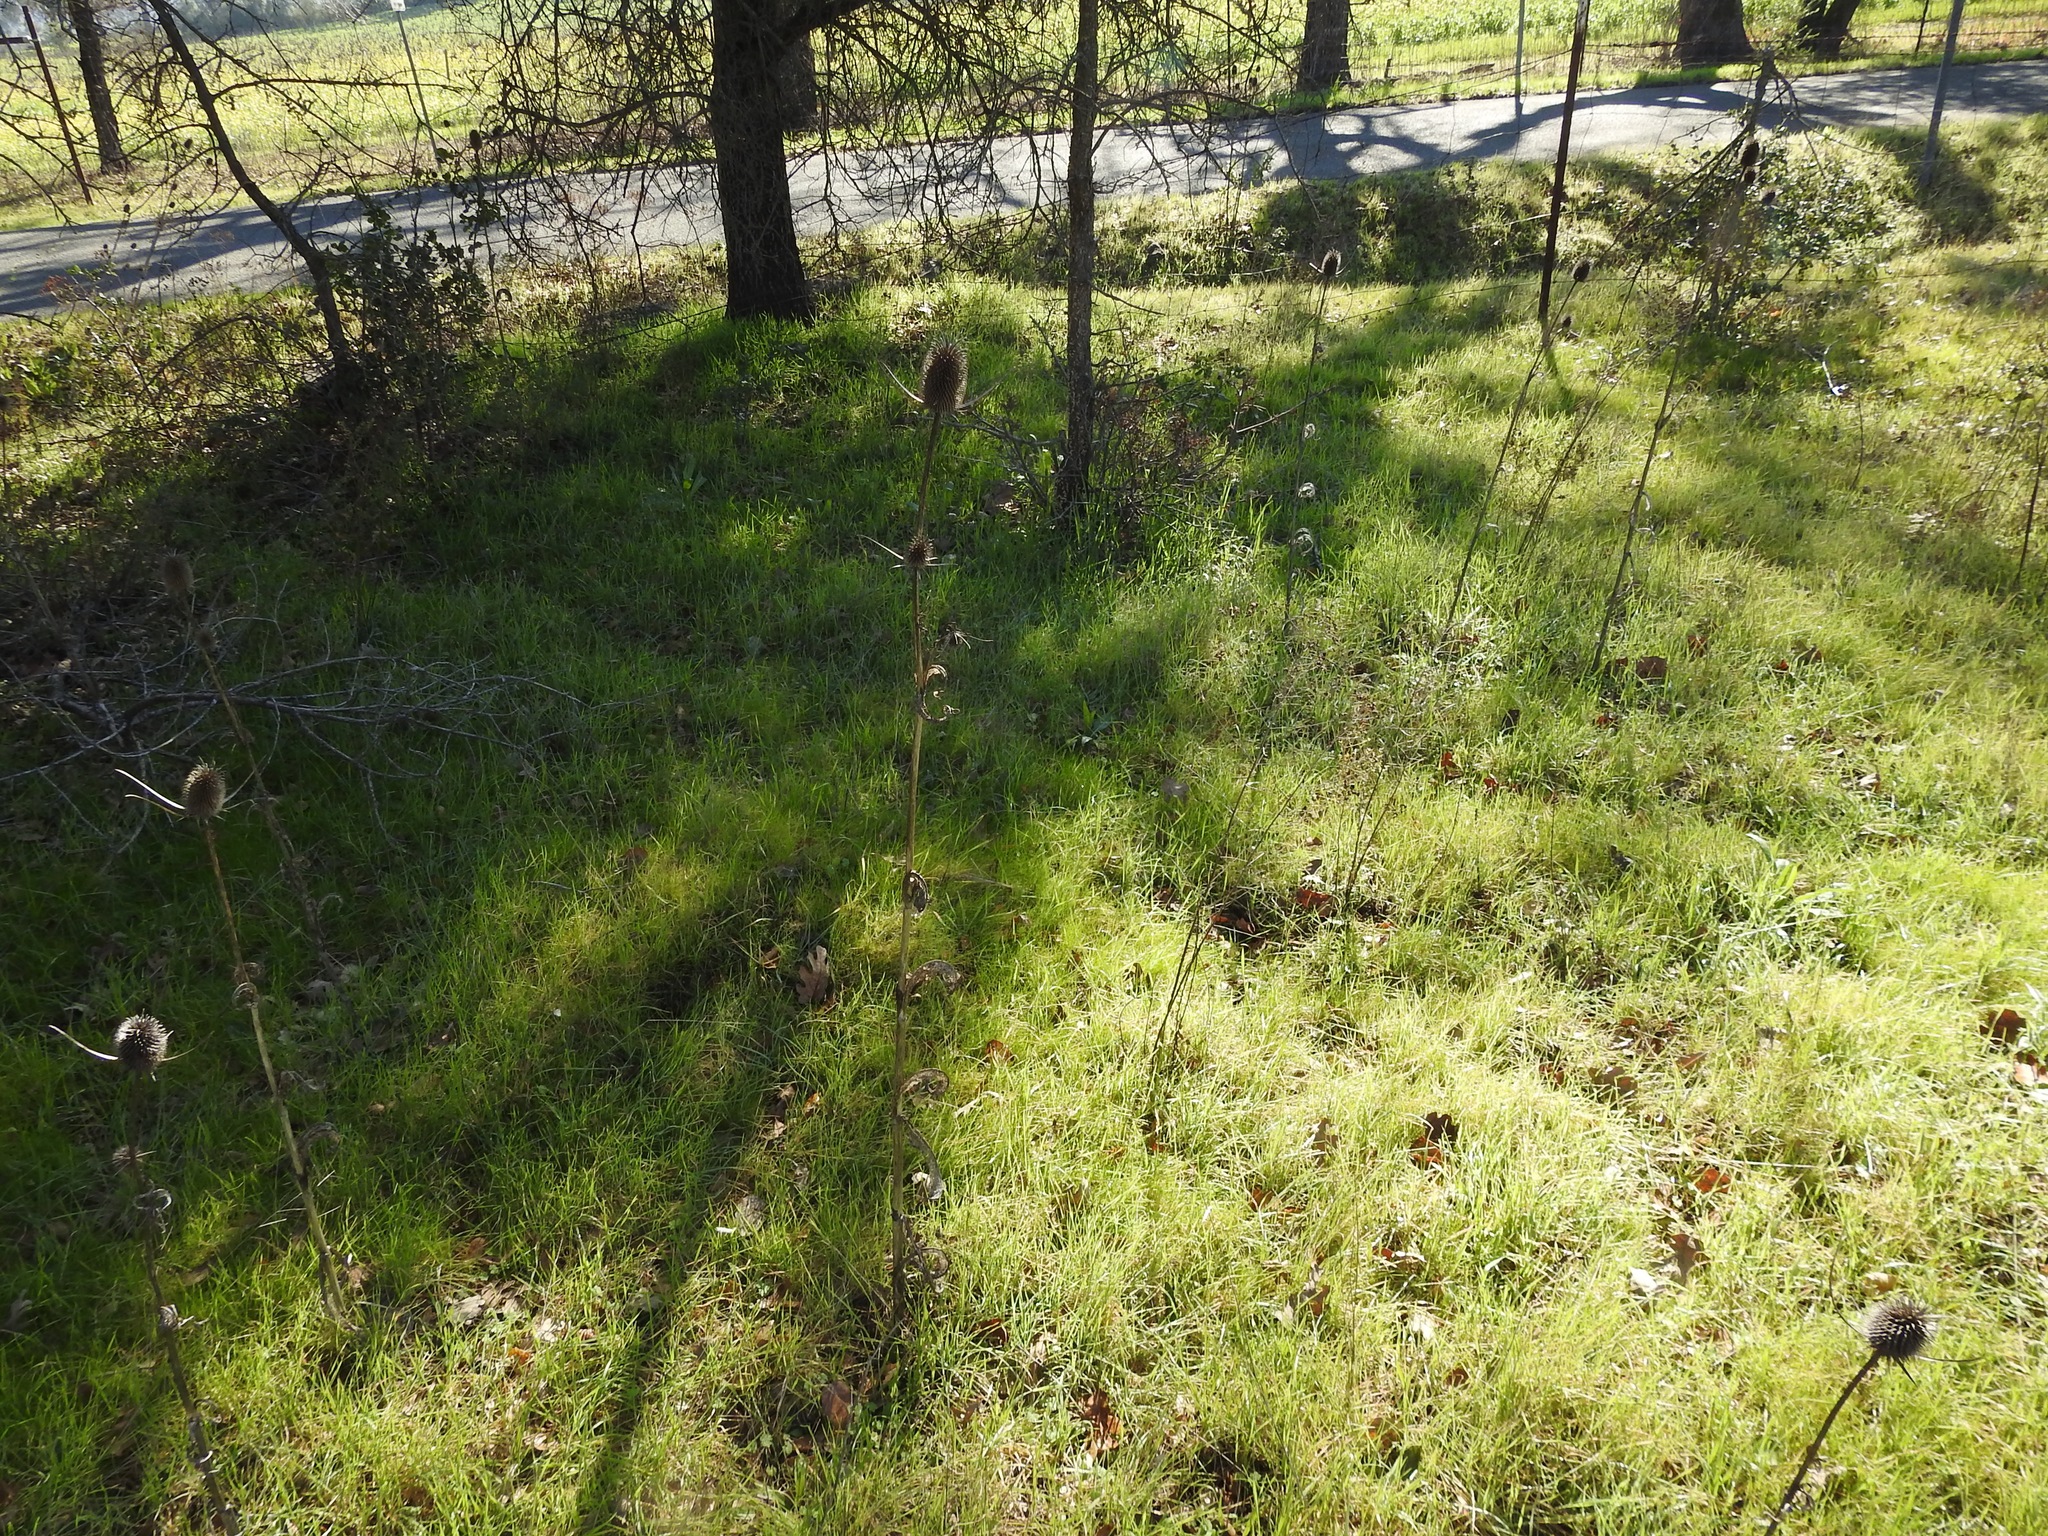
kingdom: Plantae
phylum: Tracheophyta
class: Magnoliopsida
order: Dipsacales
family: Caprifoliaceae
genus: Dipsacus
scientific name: Dipsacus sativus
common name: Fuller's teasel
